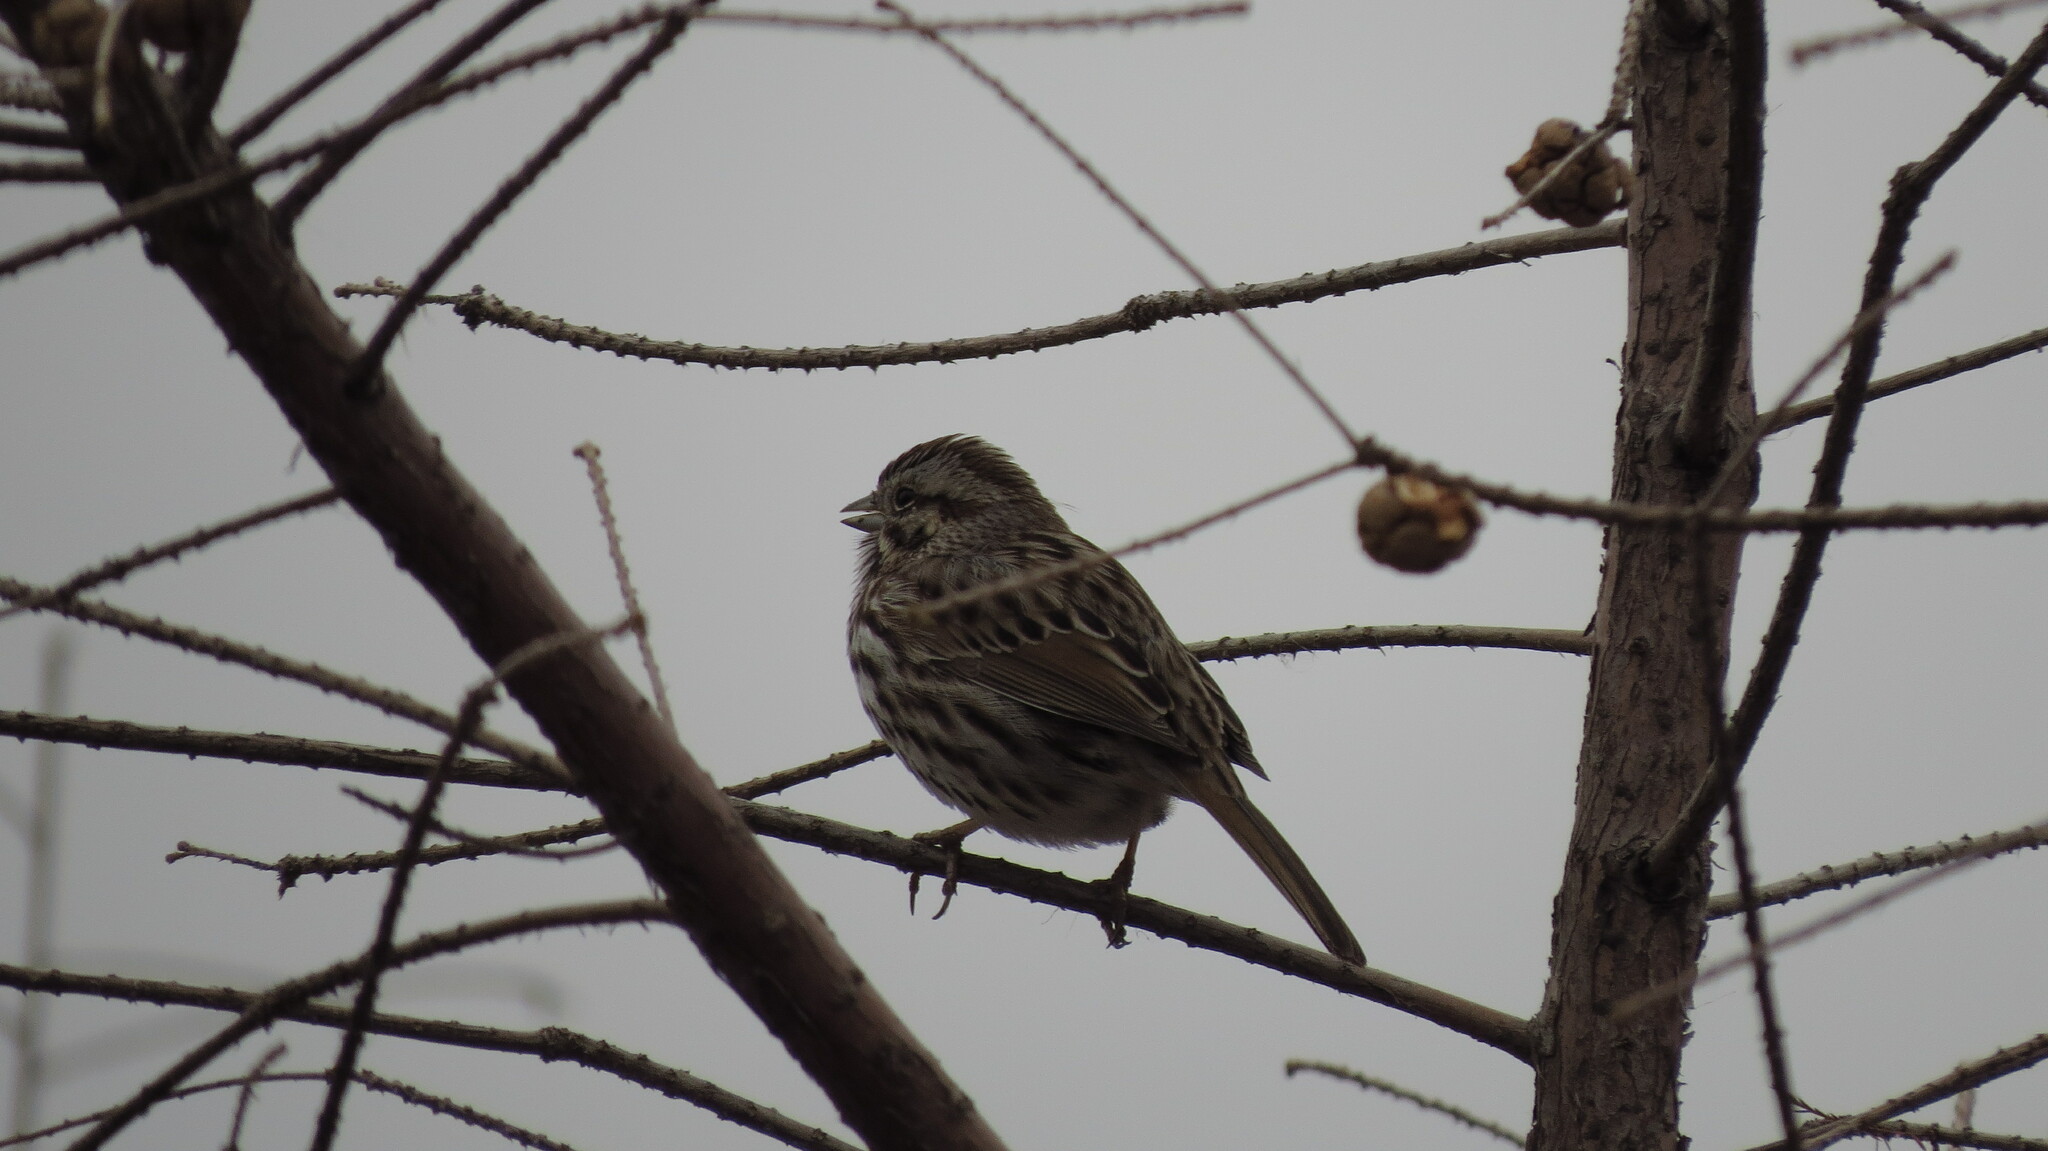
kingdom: Animalia
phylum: Chordata
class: Aves
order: Passeriformes
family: Passerellidae
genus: Melospiza
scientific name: Melospiza melodia
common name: Song sparrow
